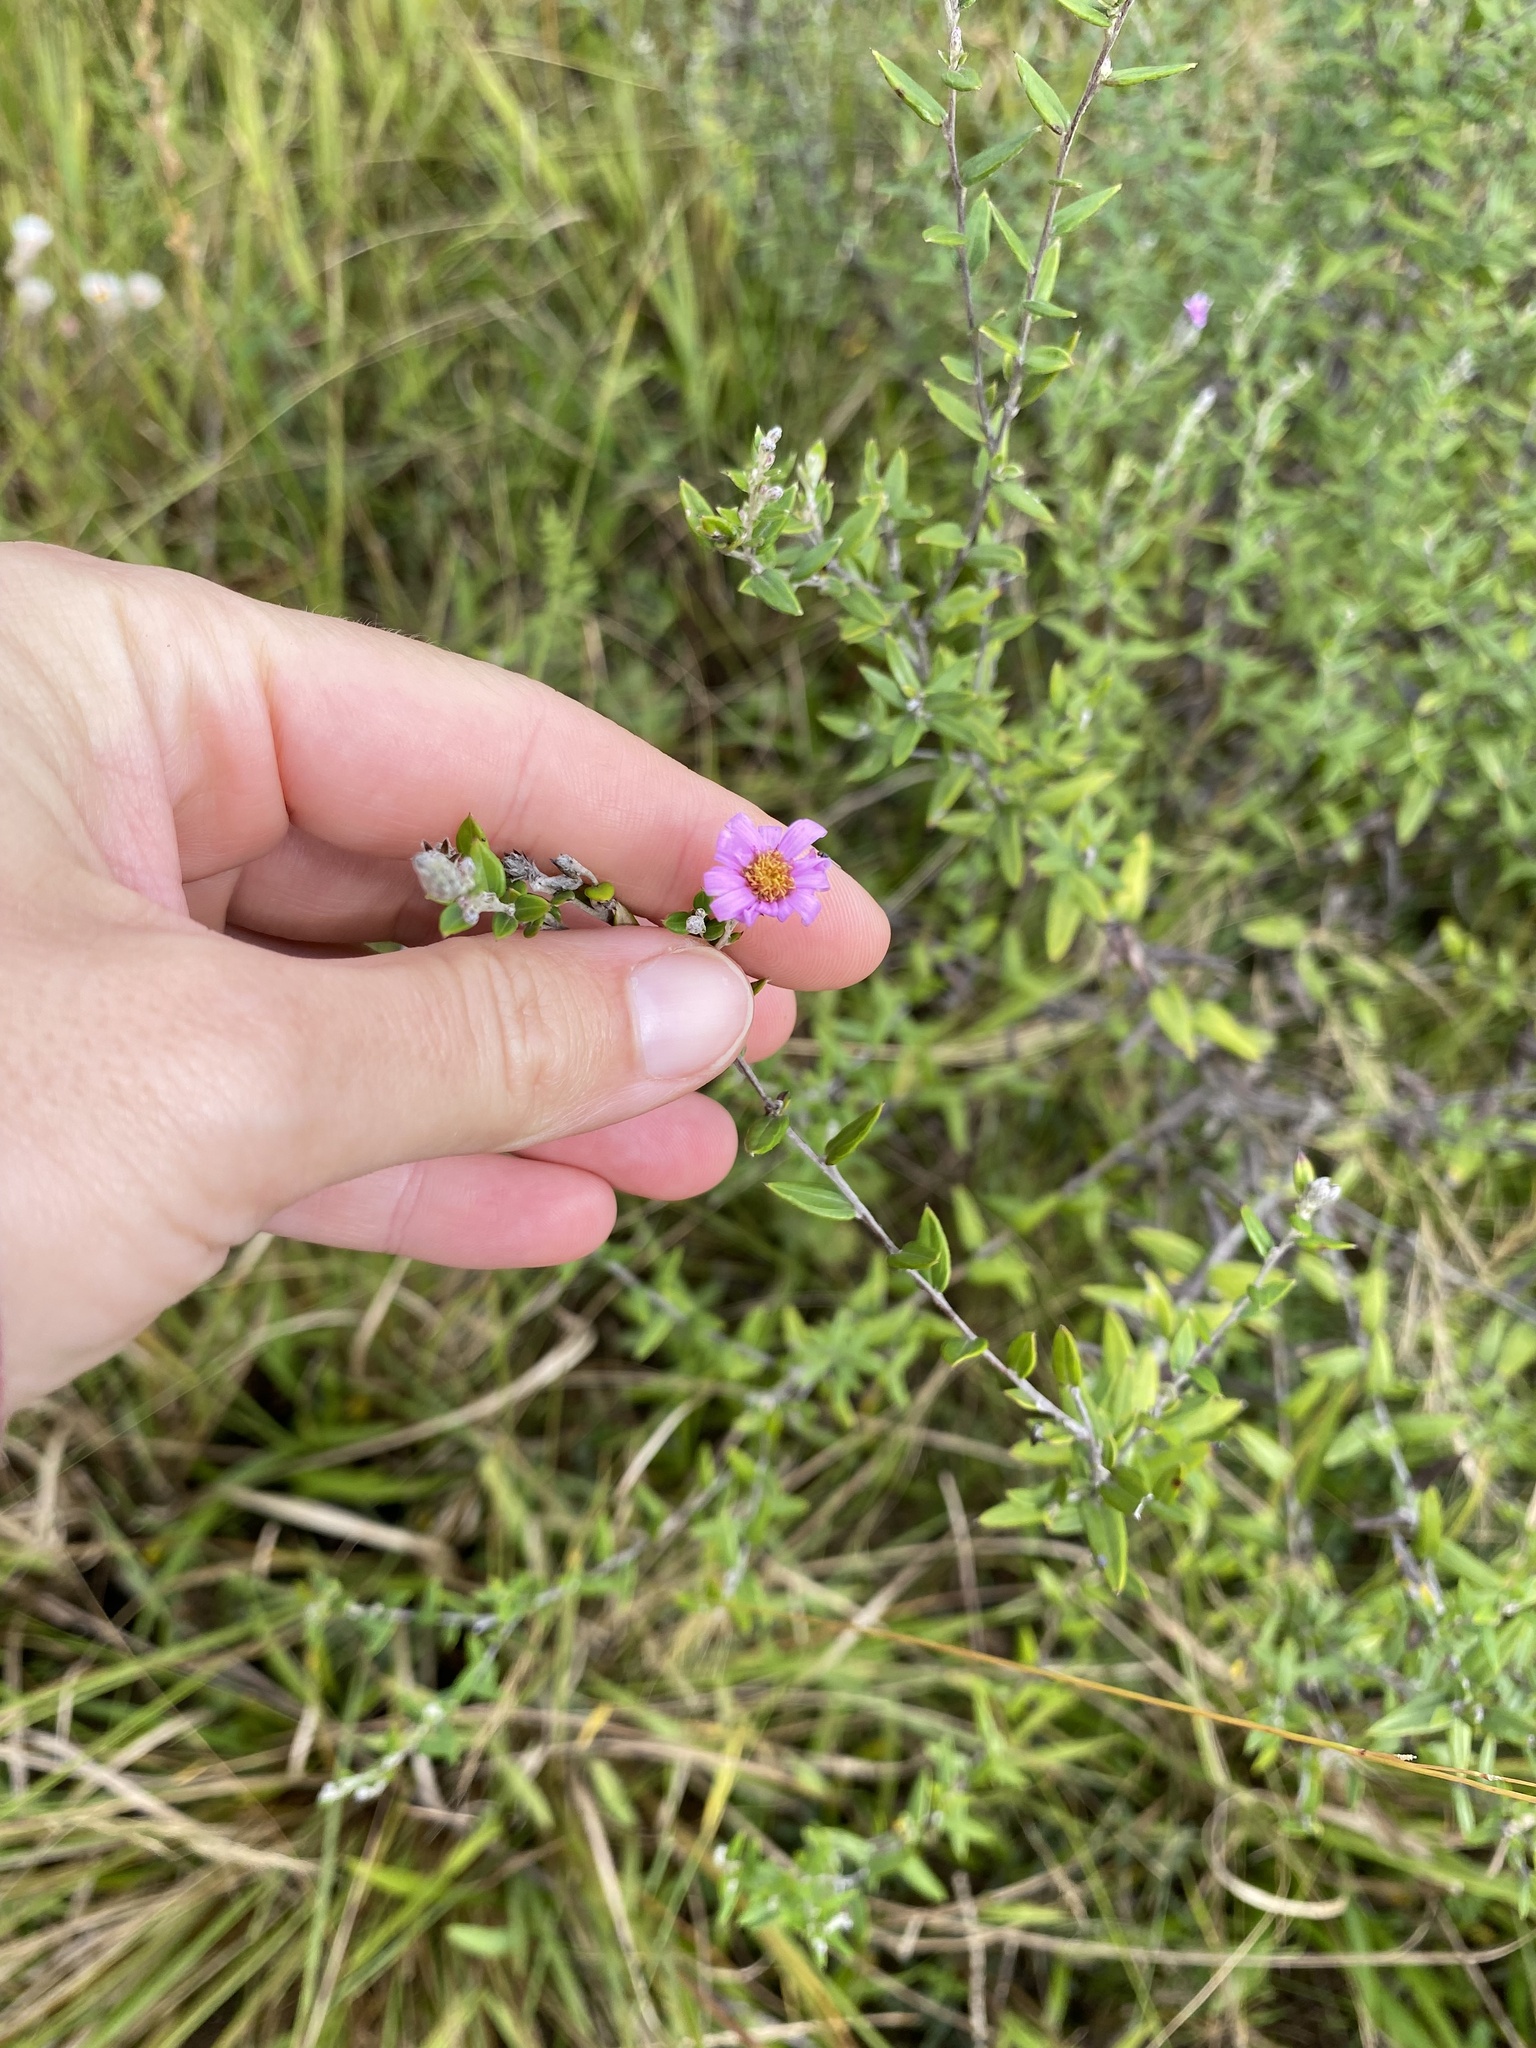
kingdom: Plantae
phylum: Tracheophyta
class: Magnoliopsida
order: Asterales
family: Asteraceae
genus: Athrixia
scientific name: Athrixia phylicoides
